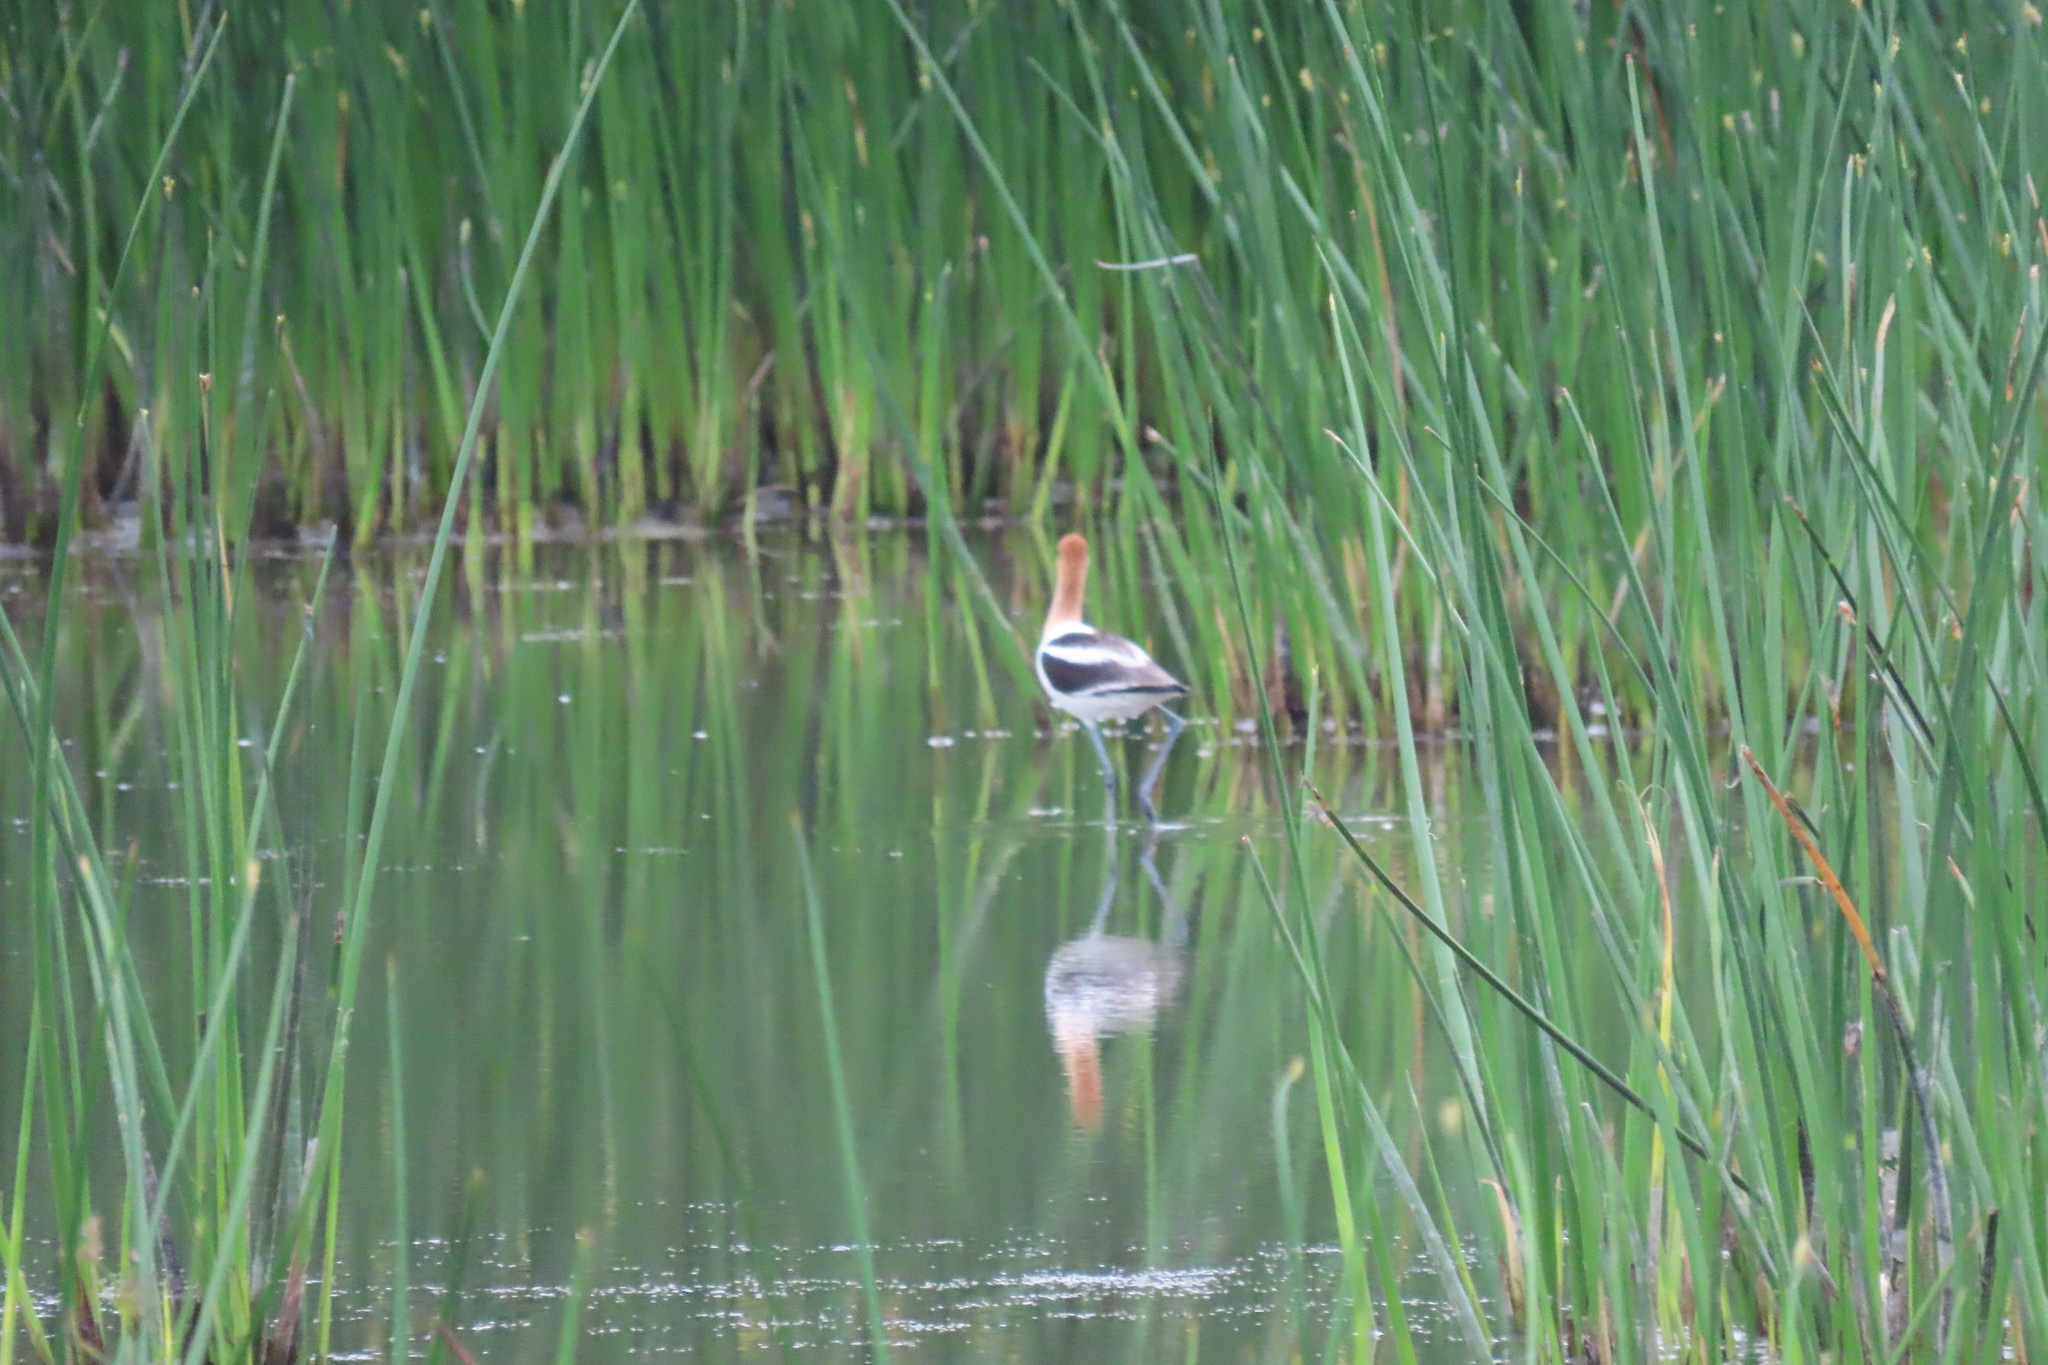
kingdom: Animalia
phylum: Chordata
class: Aves
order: Charadriiformes
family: Recurvirostridae
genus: Recurvirostra
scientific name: Recurvirostra americana
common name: American avocet
